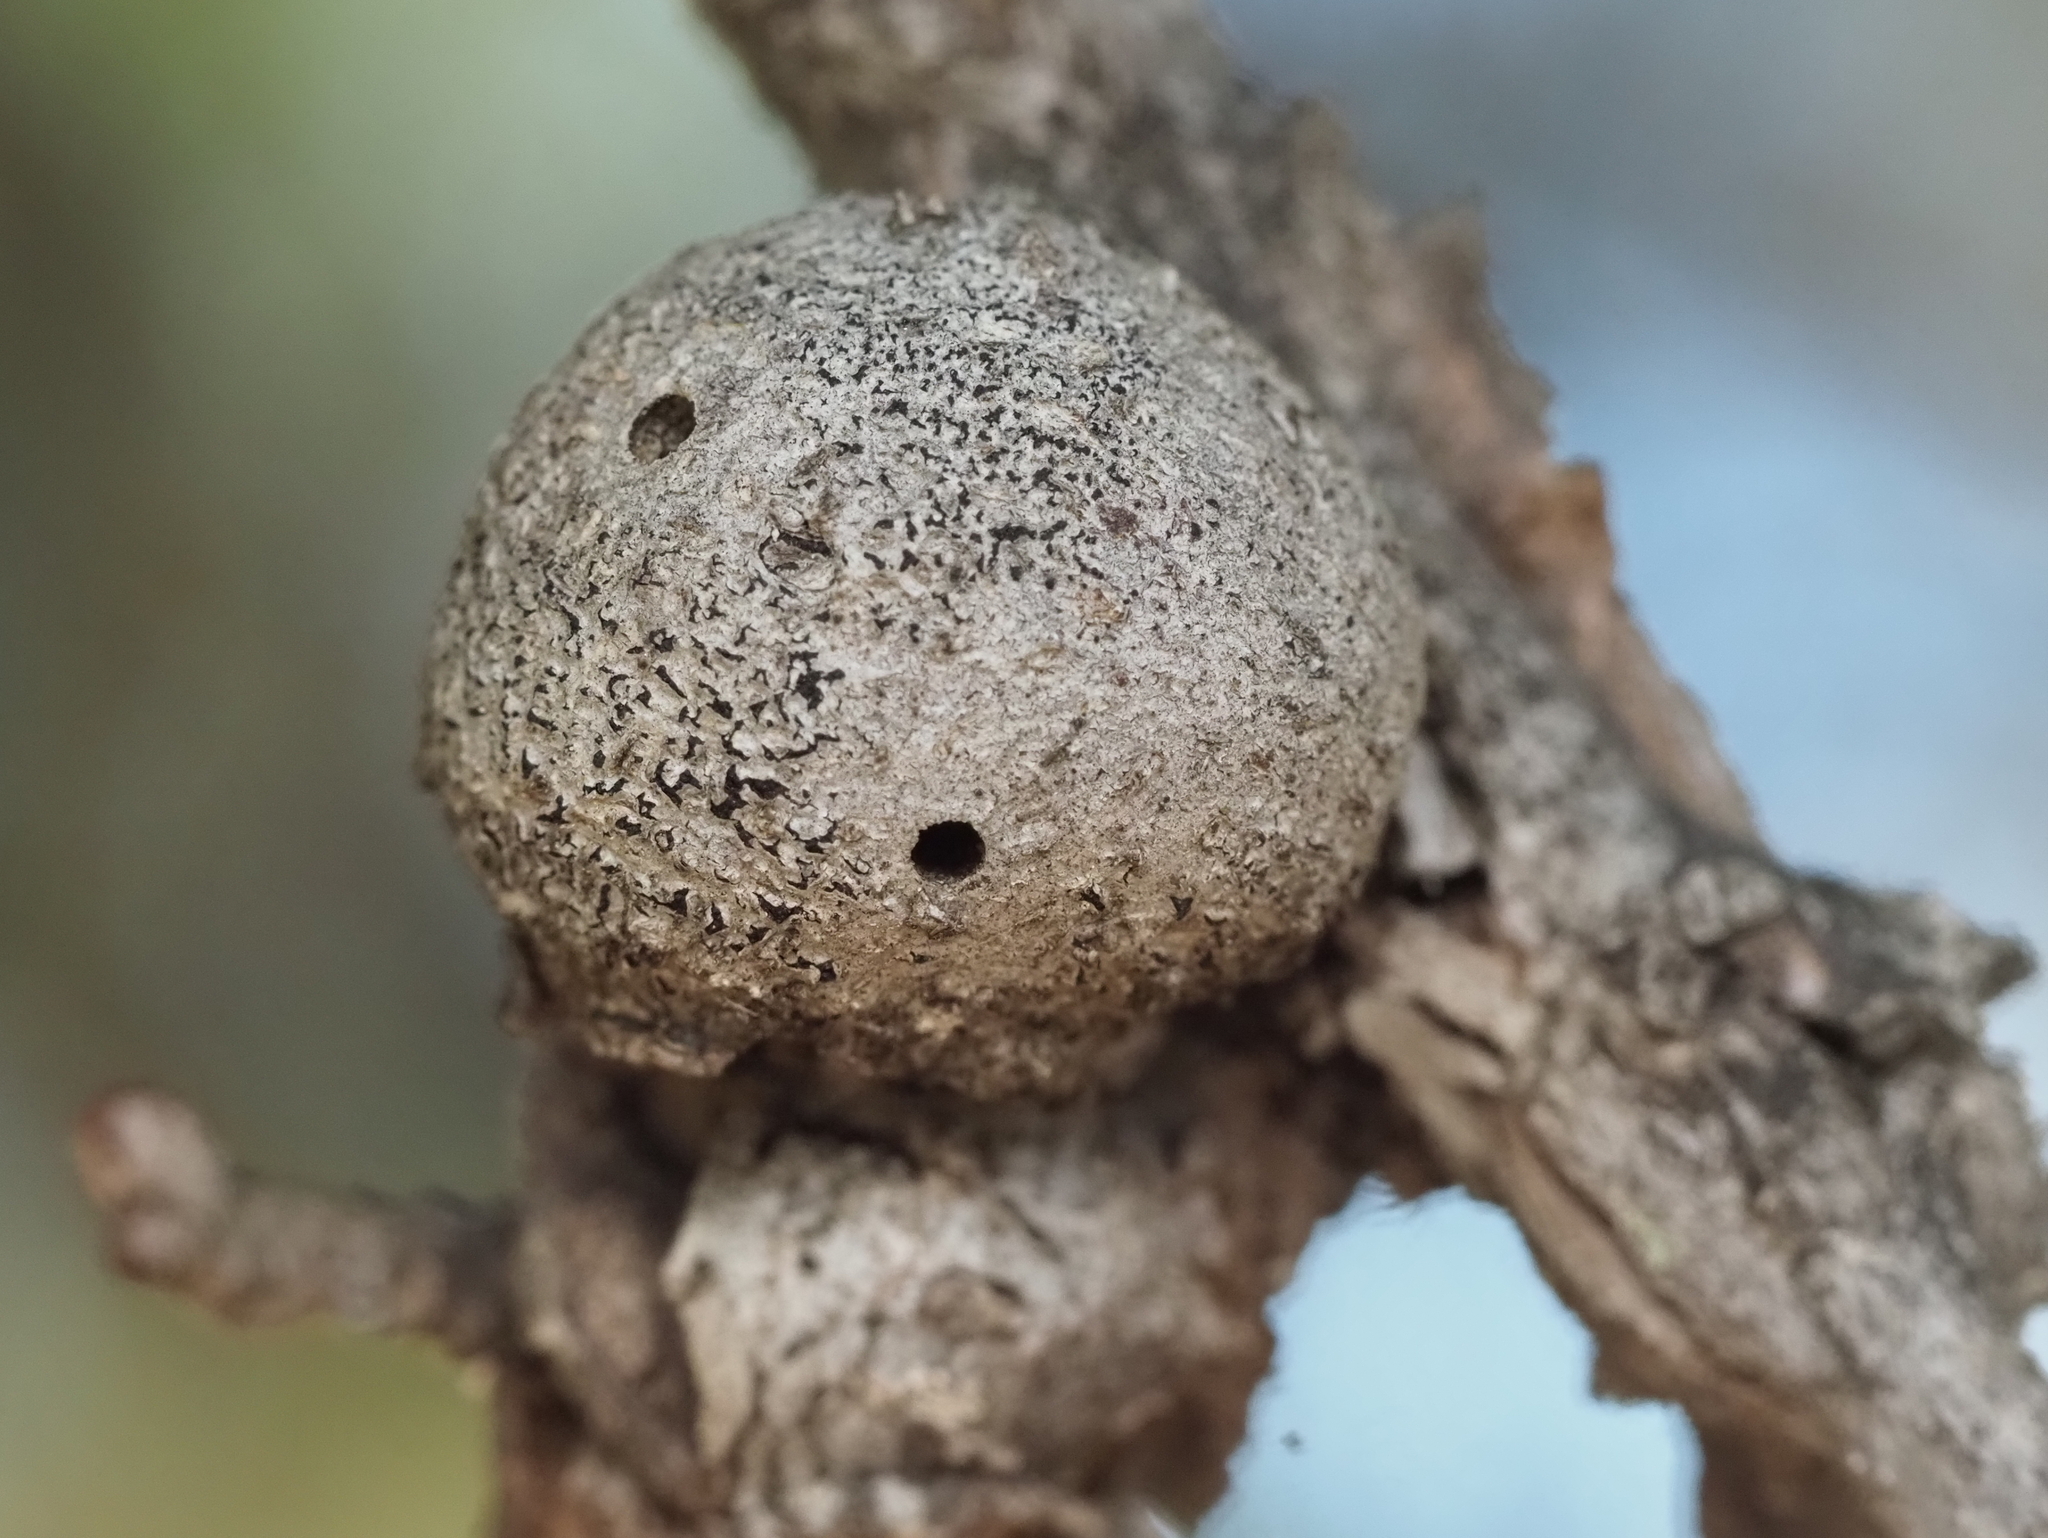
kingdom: Animalia
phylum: Arthropoda
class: Insecta
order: Hymenoptera
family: Cynipidae
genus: Callirhytis
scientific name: Callirhytis
